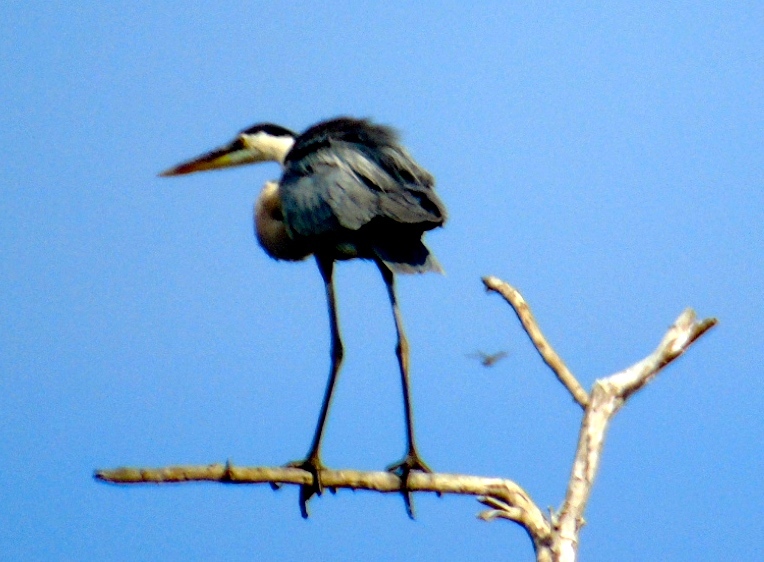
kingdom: Animalia
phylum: Chordata
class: Aves
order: Pelecaniformes
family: Ardeidae
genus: Ardea
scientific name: Ardea herodias
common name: Great blue heron
